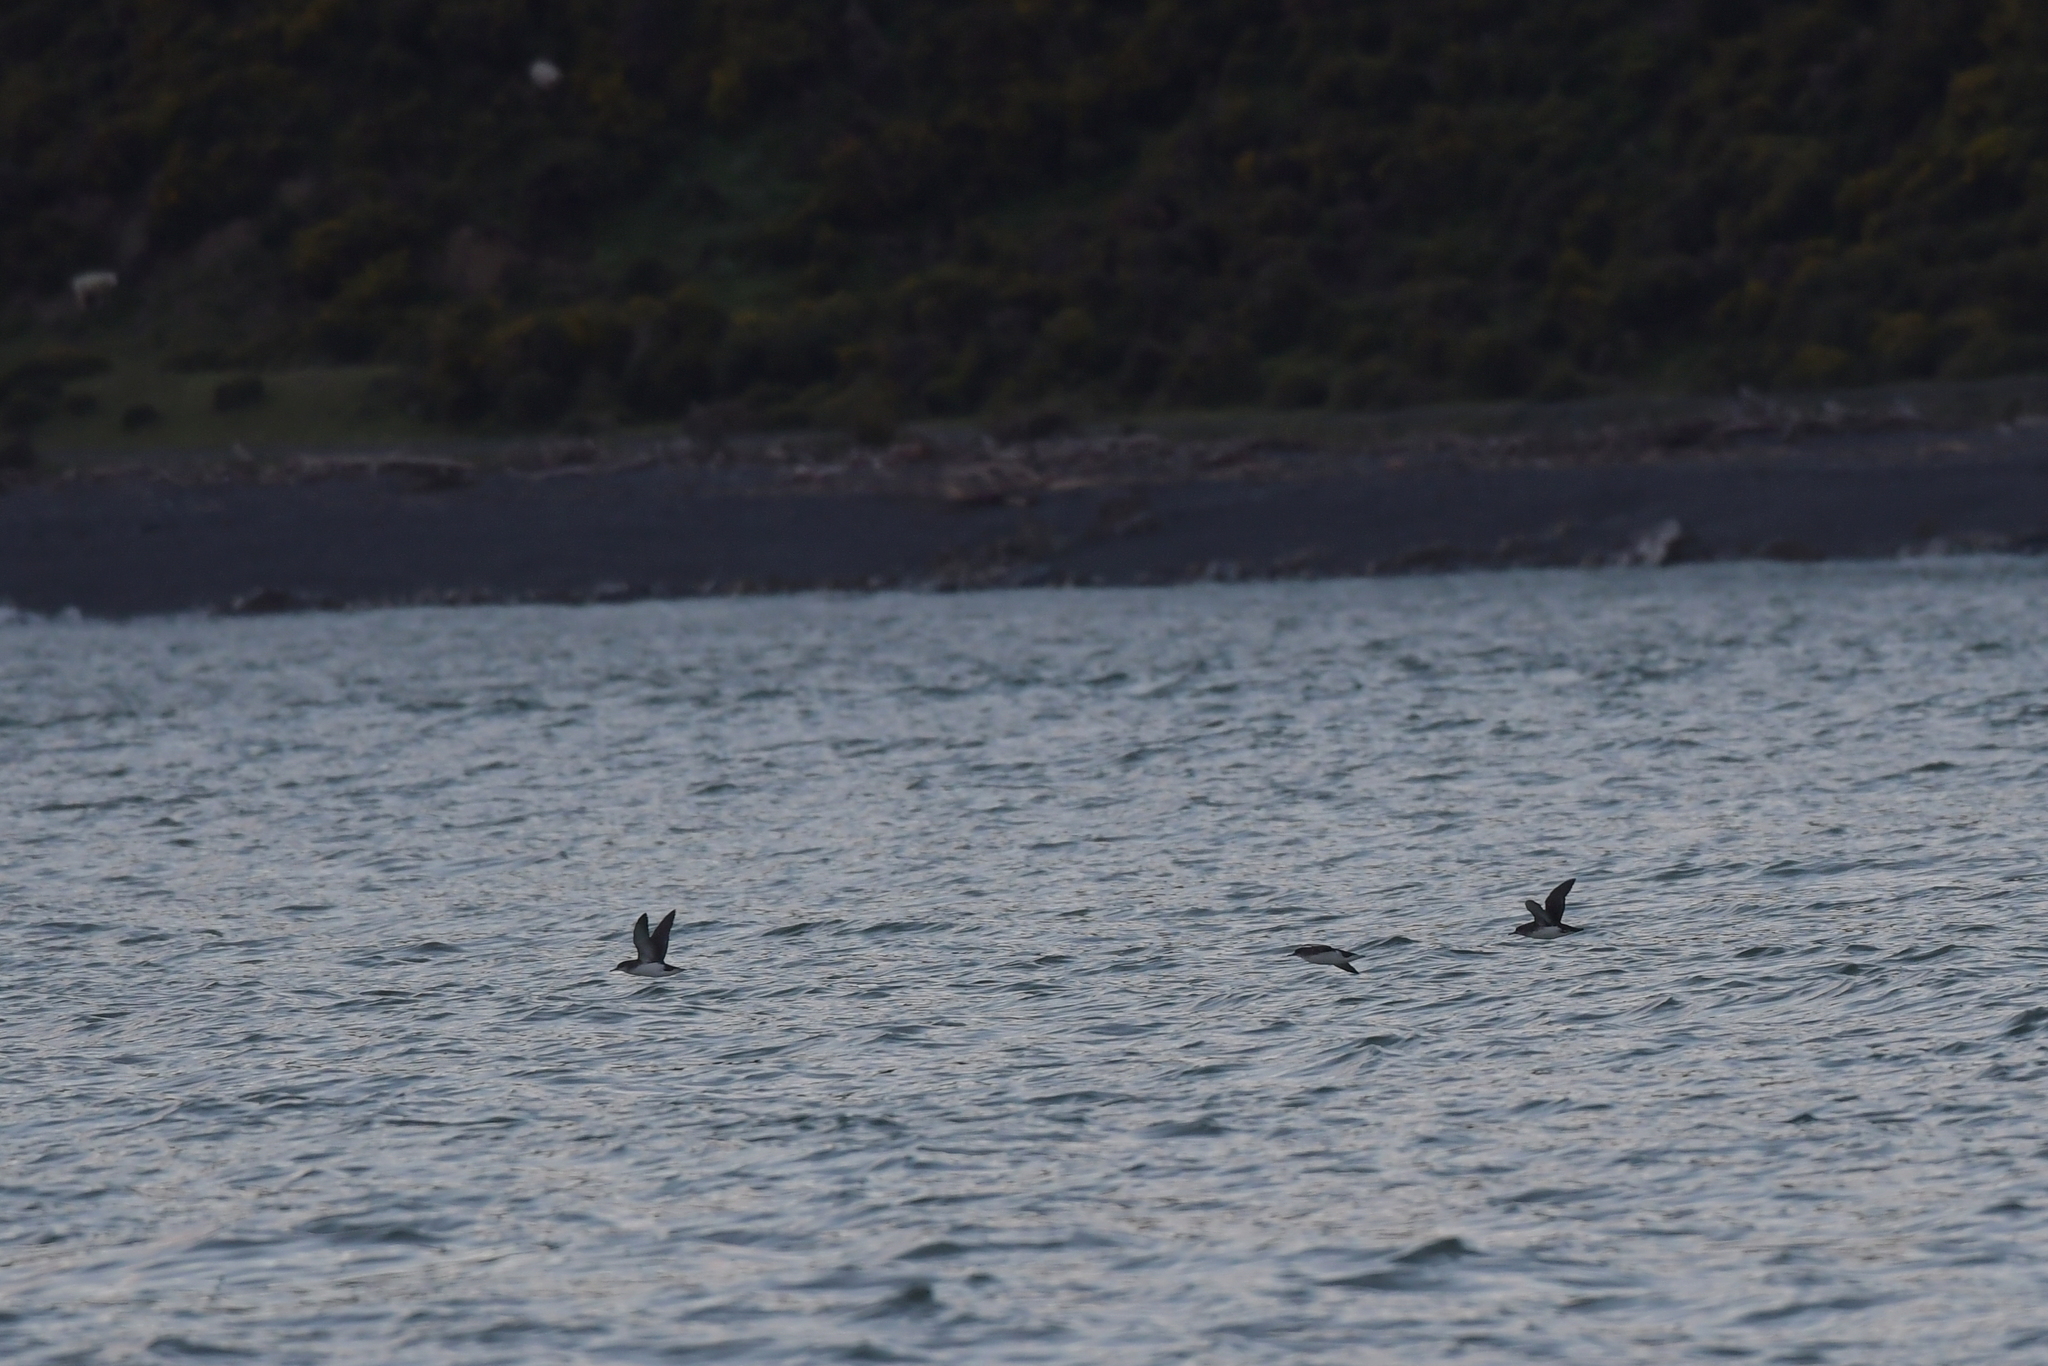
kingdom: Animalia
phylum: Chordata
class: Aves
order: Procellariiformes
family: Procellariidae
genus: Puffinus
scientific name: Puffinus gavia
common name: Fluttering shearwater
